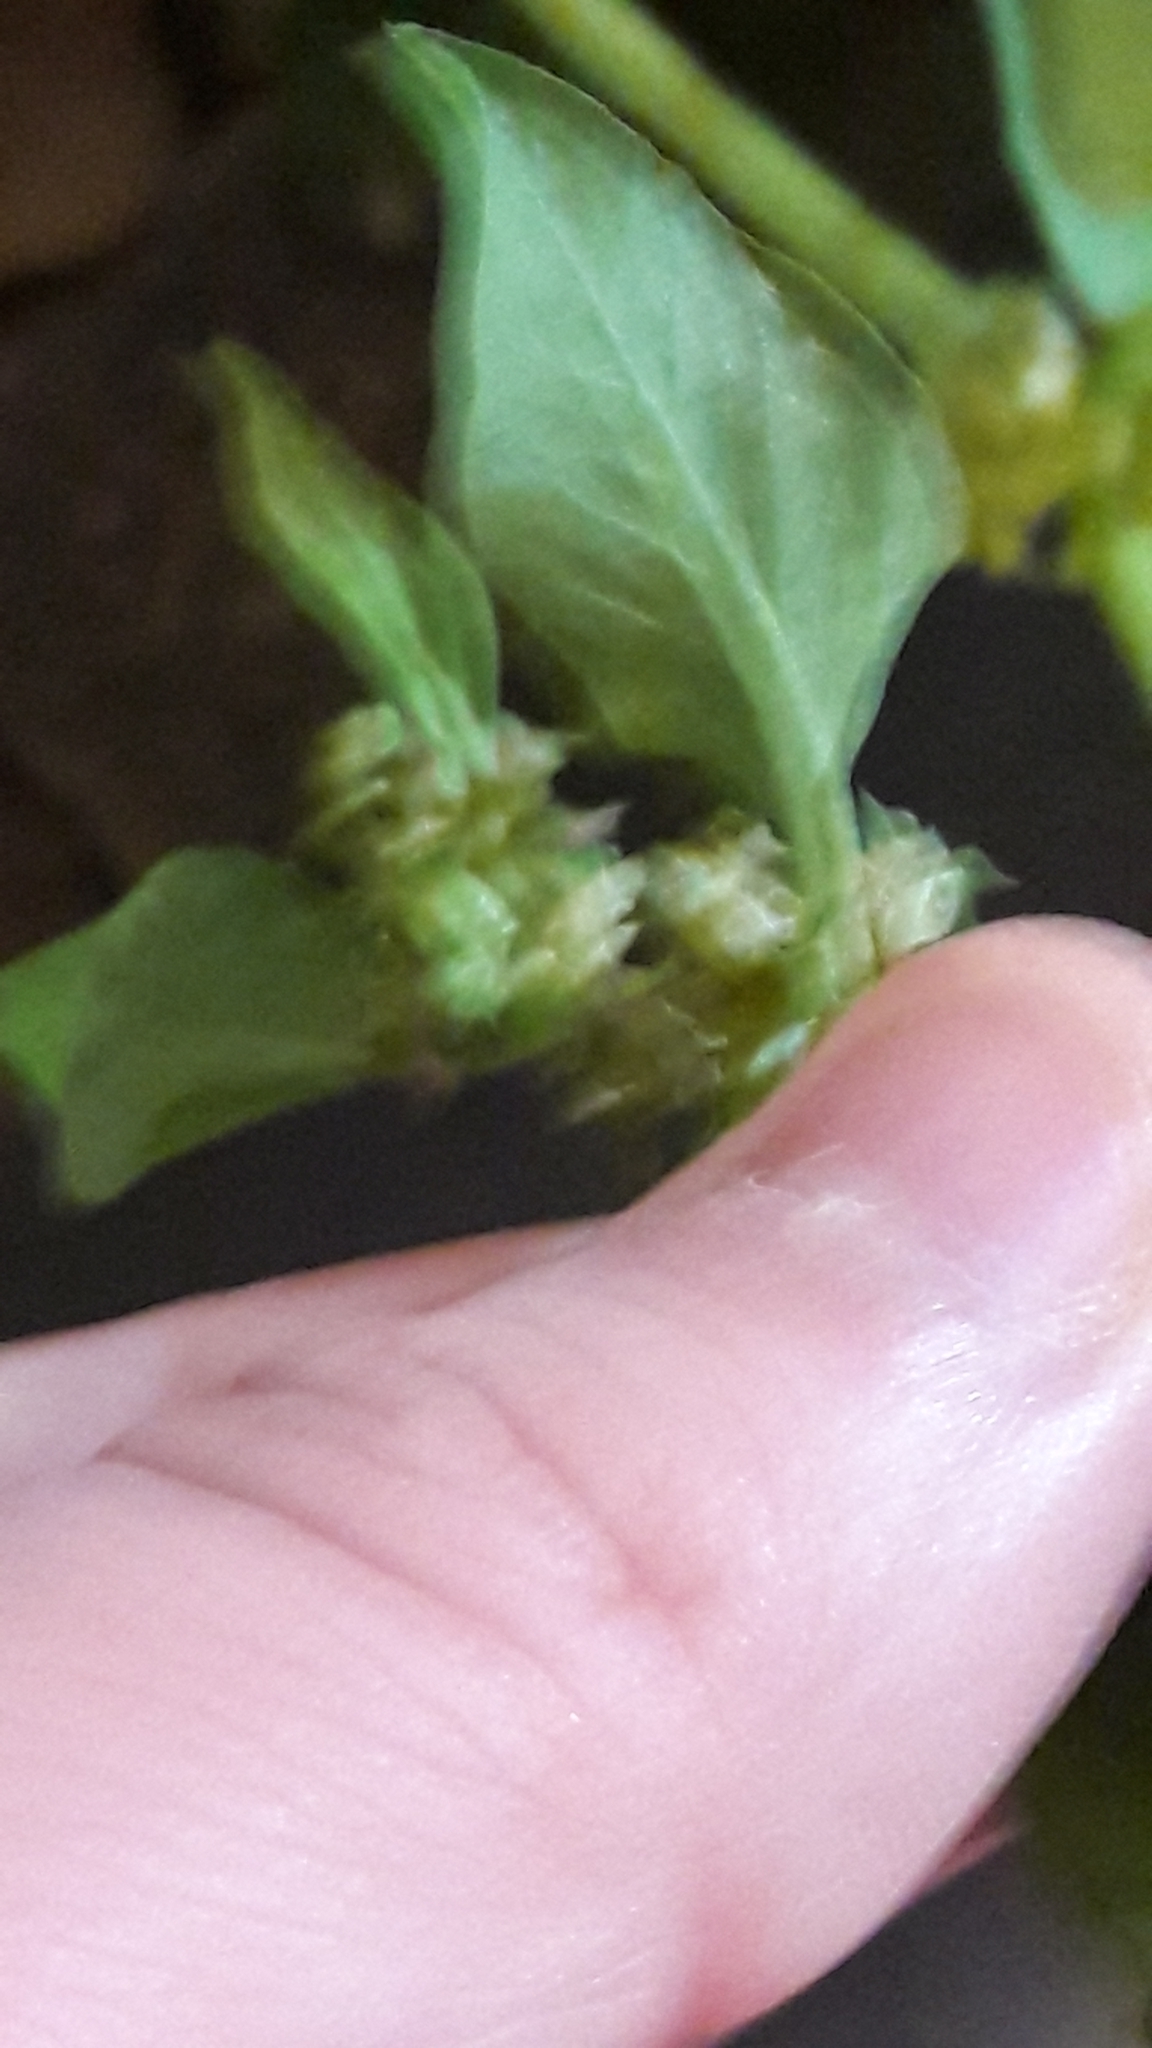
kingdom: Plantae
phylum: Tracheophyta
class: Magnoliopsida
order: Caryophyllales
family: Polygonaceae
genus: Rumex
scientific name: Rumex spinosus
